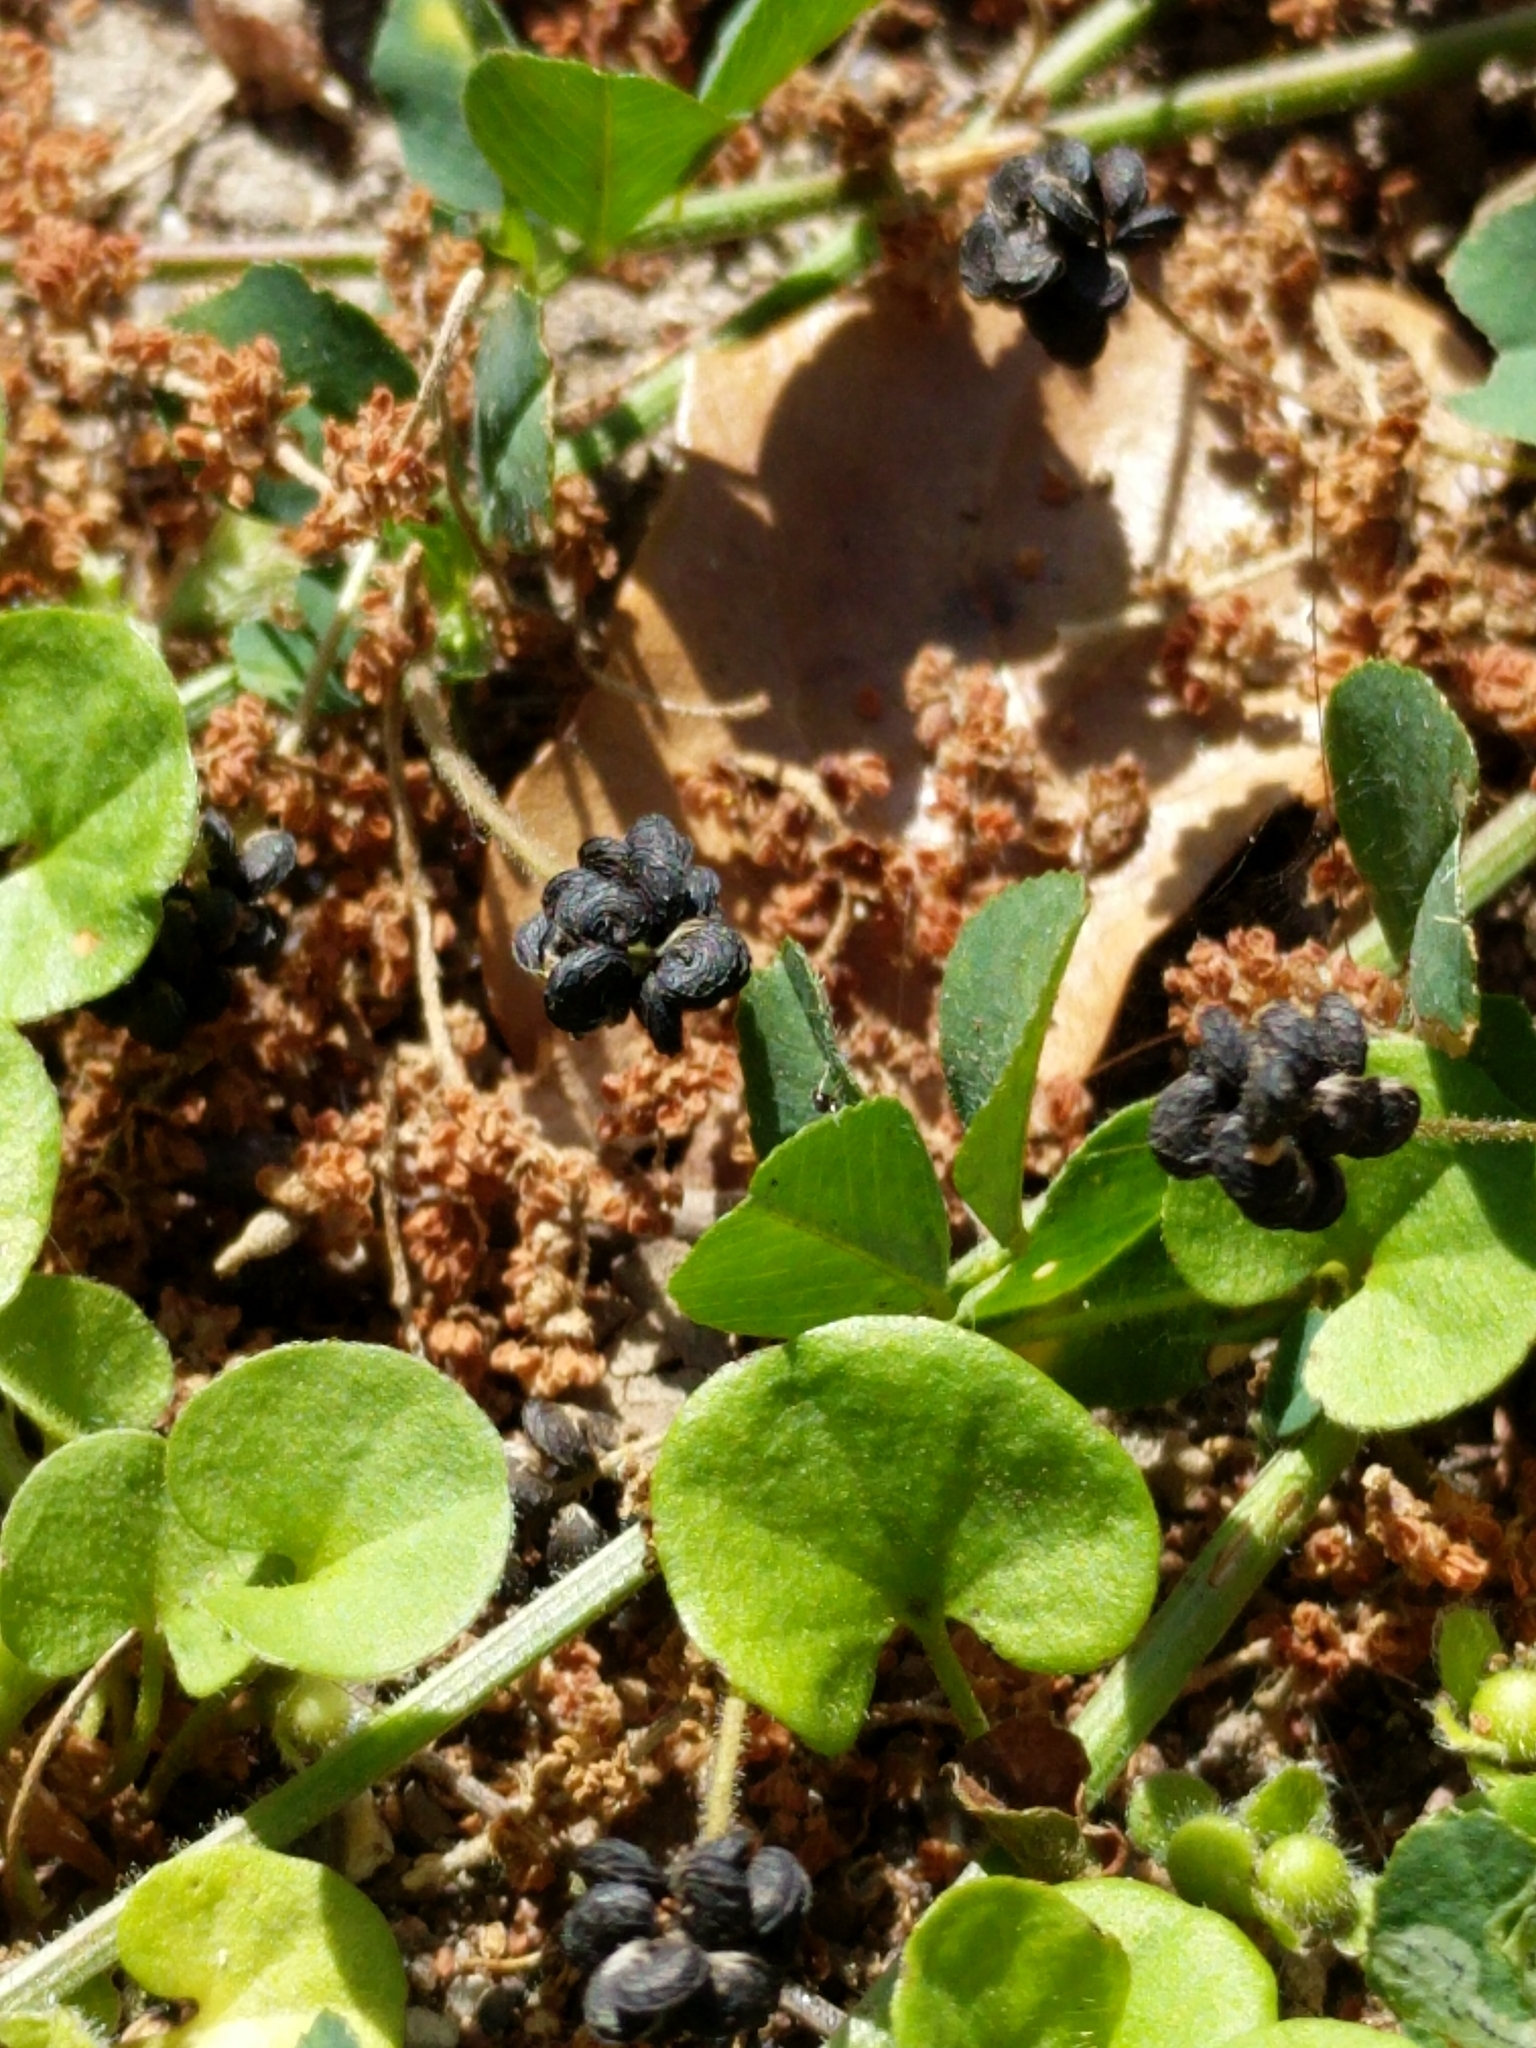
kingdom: Plantae
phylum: Tracheophyta
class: Magnoliopsida
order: Fabales
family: Fabaceae
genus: Medicago
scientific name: Medicago lupulina
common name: Black medick
